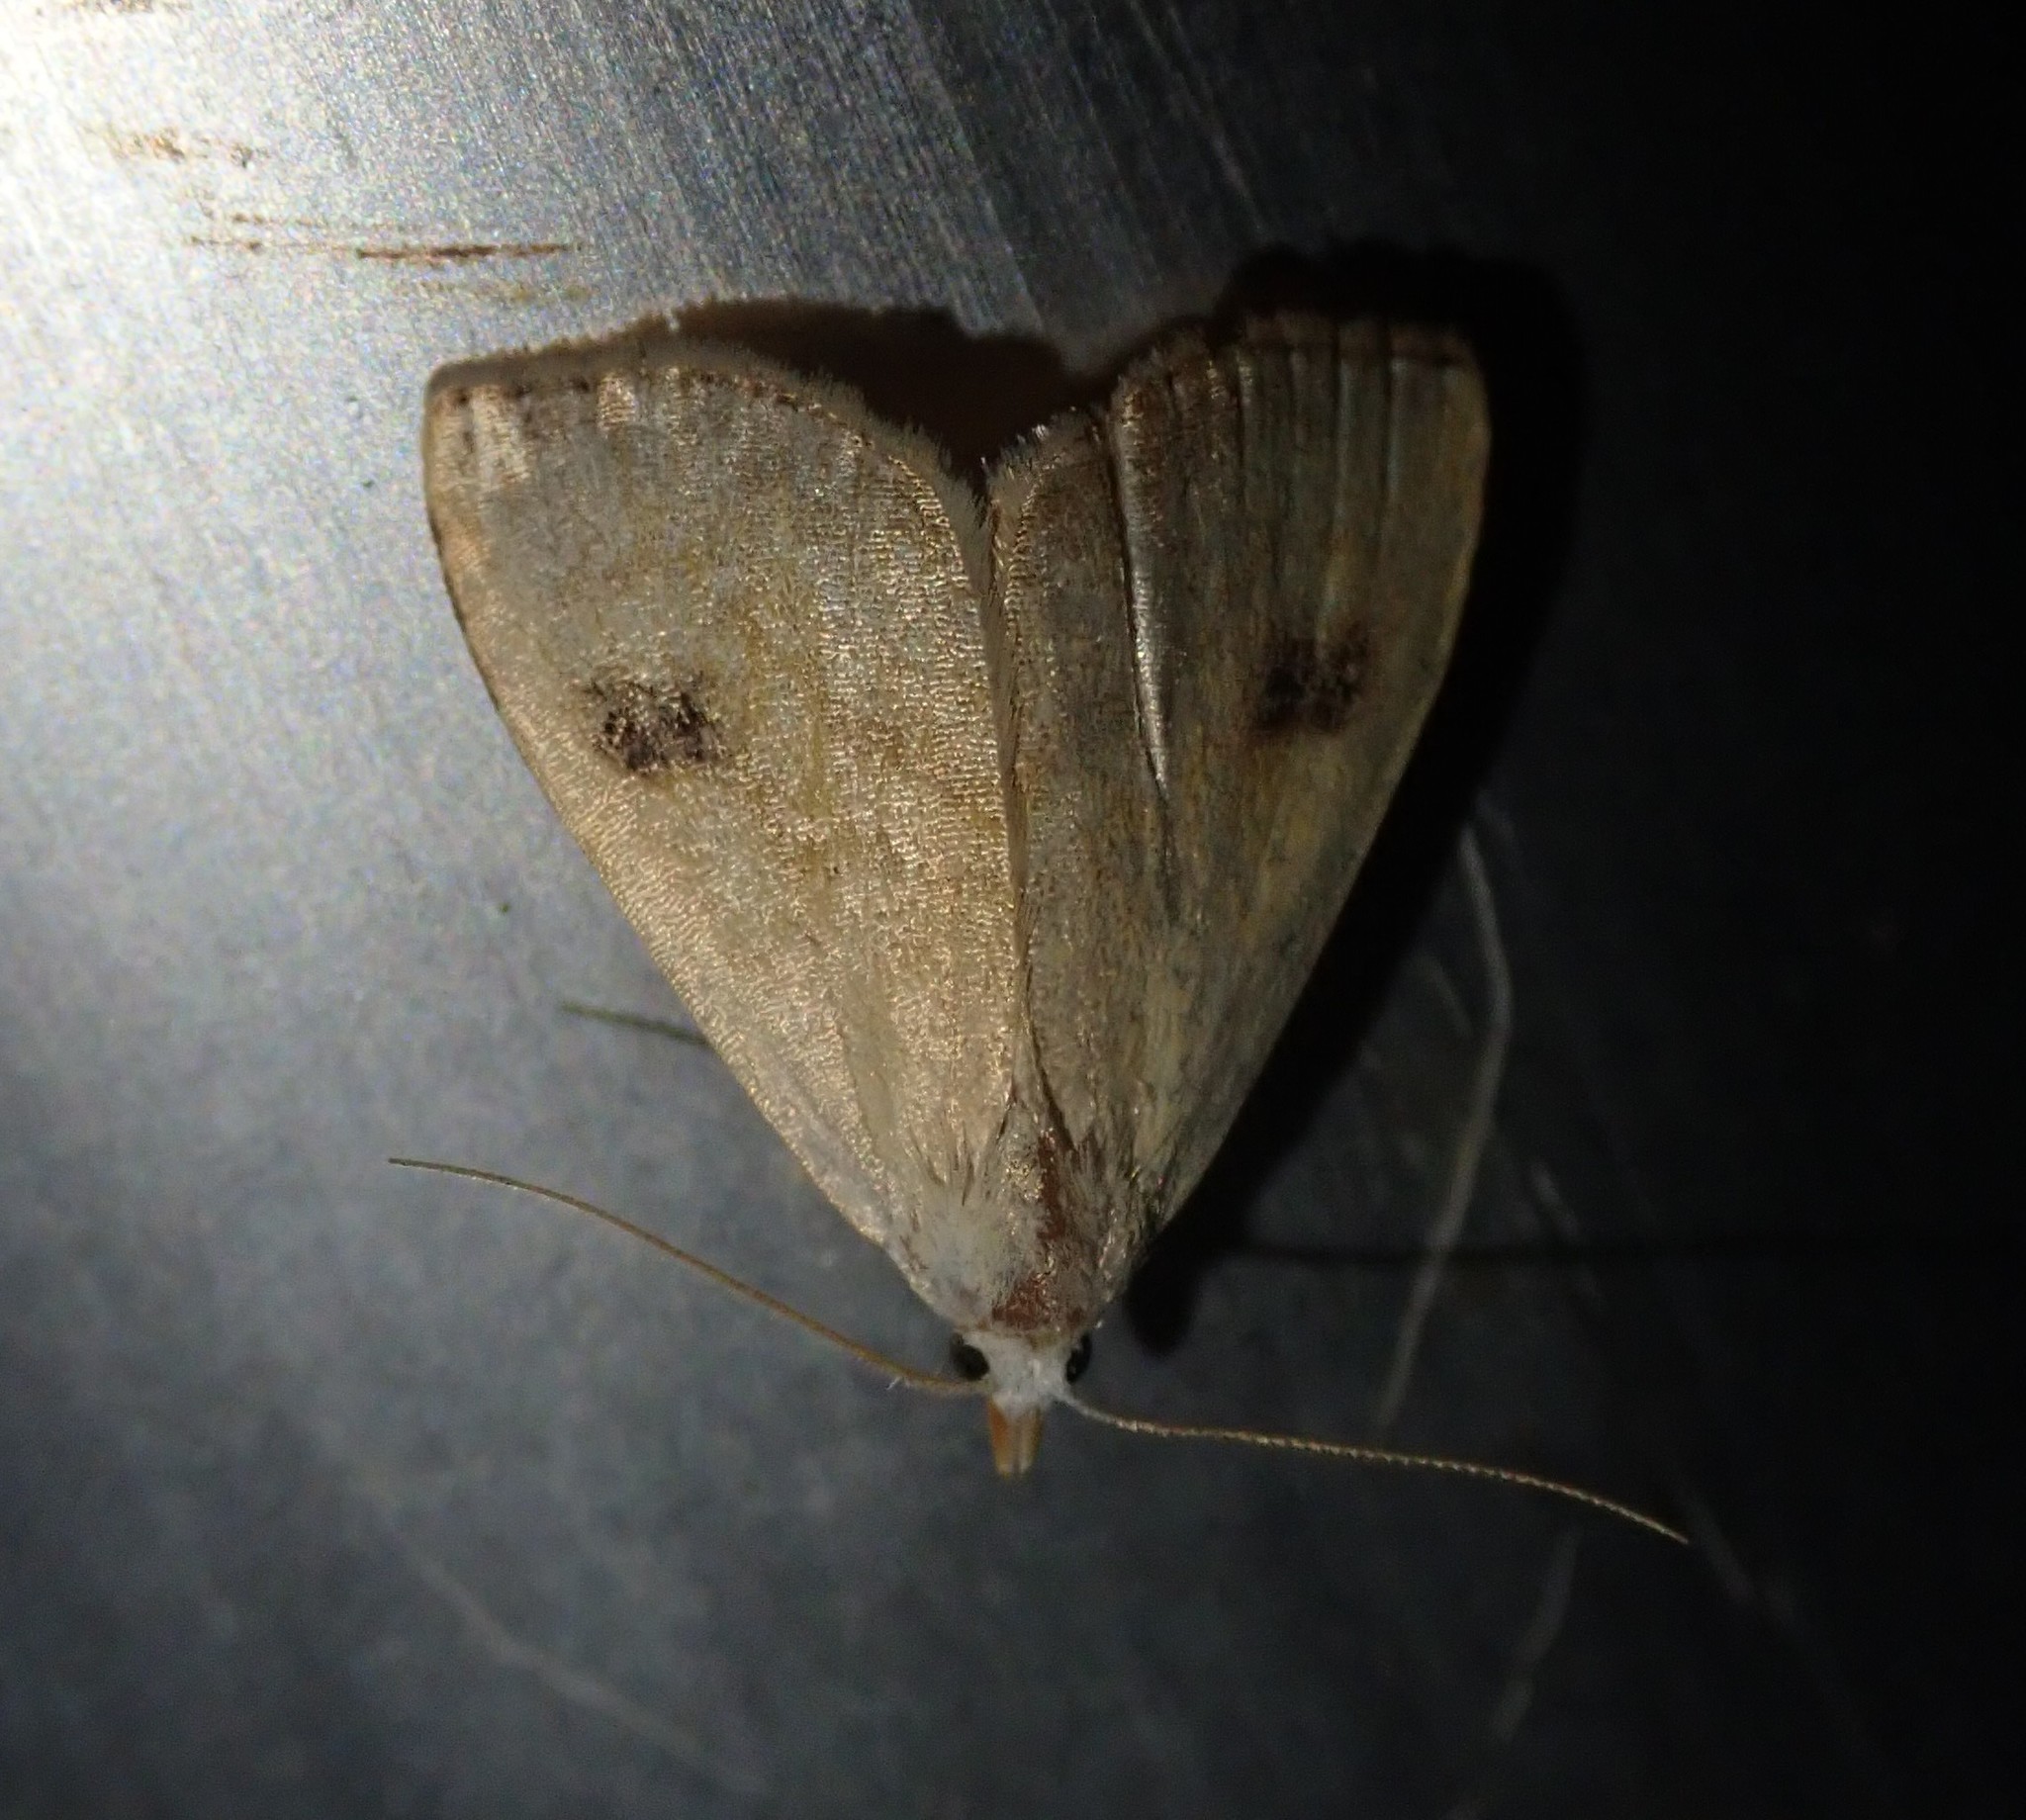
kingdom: Animalia
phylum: Arthropoda
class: Insecta
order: Lepidoptera
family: Erebidae
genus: Rivula
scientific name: Rivula sericealis
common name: Straw dot
